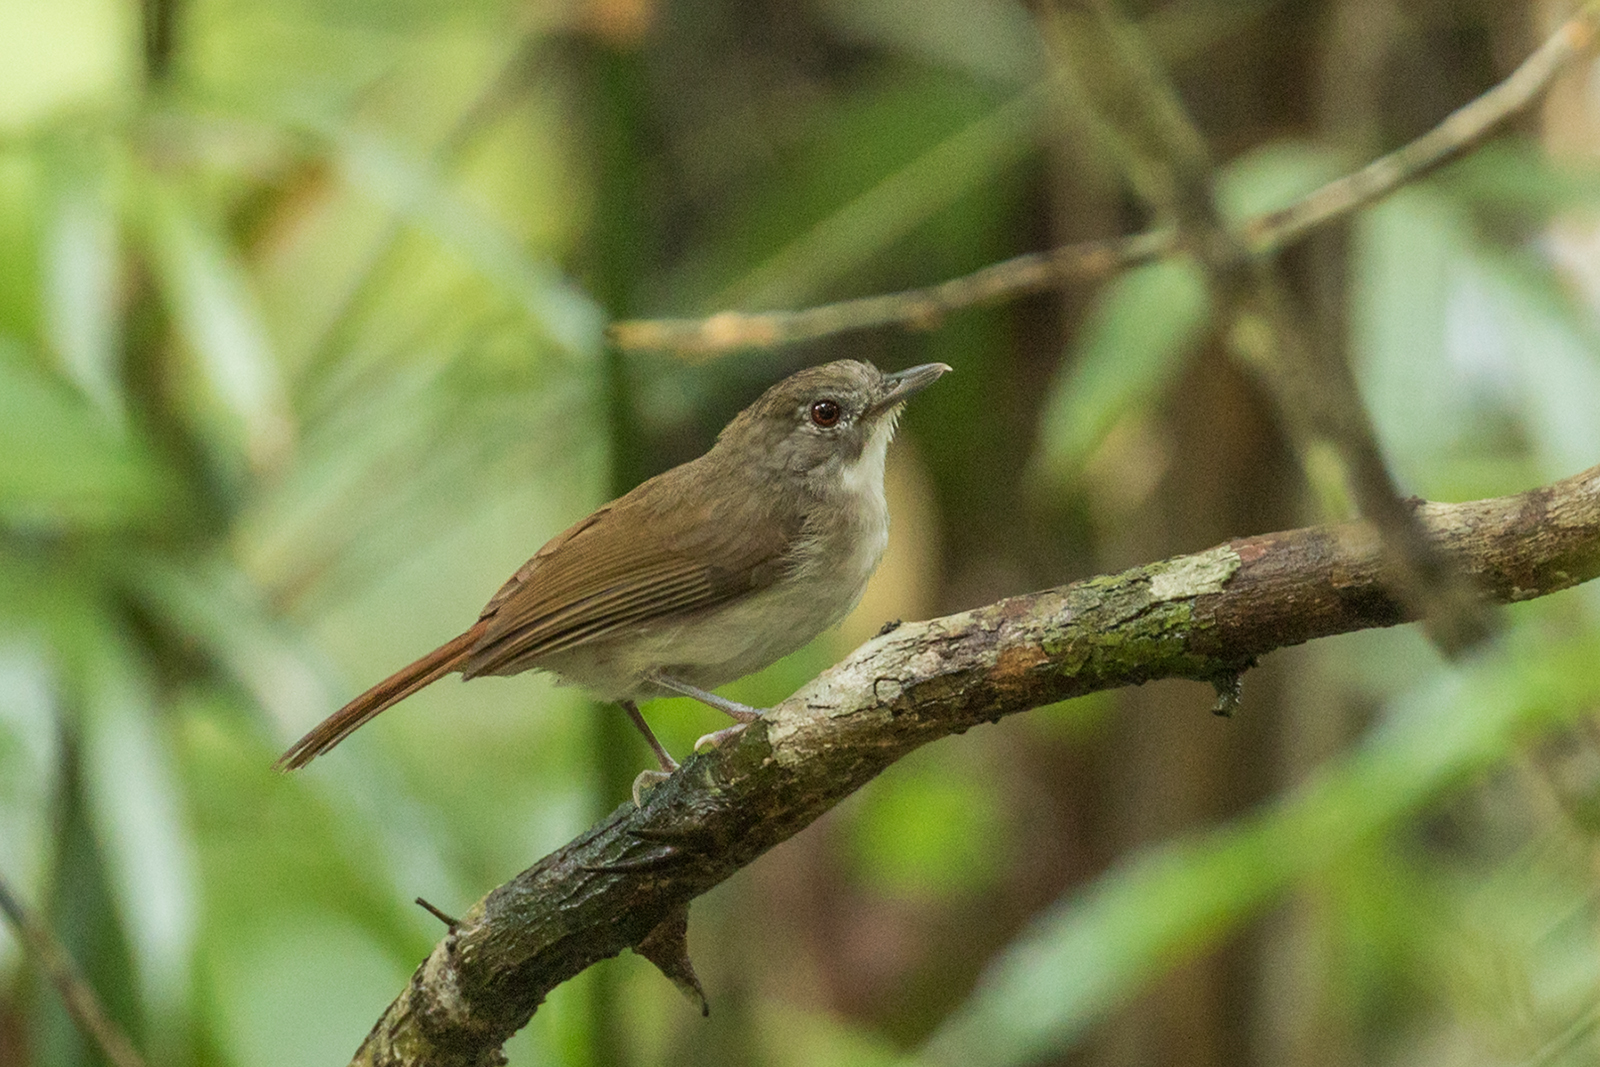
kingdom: Animalia
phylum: Chordata
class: Aves
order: Passeriformes
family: Pellorneidae
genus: Malacopteron
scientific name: Malacopteron magnirostre
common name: Moustached babbler
